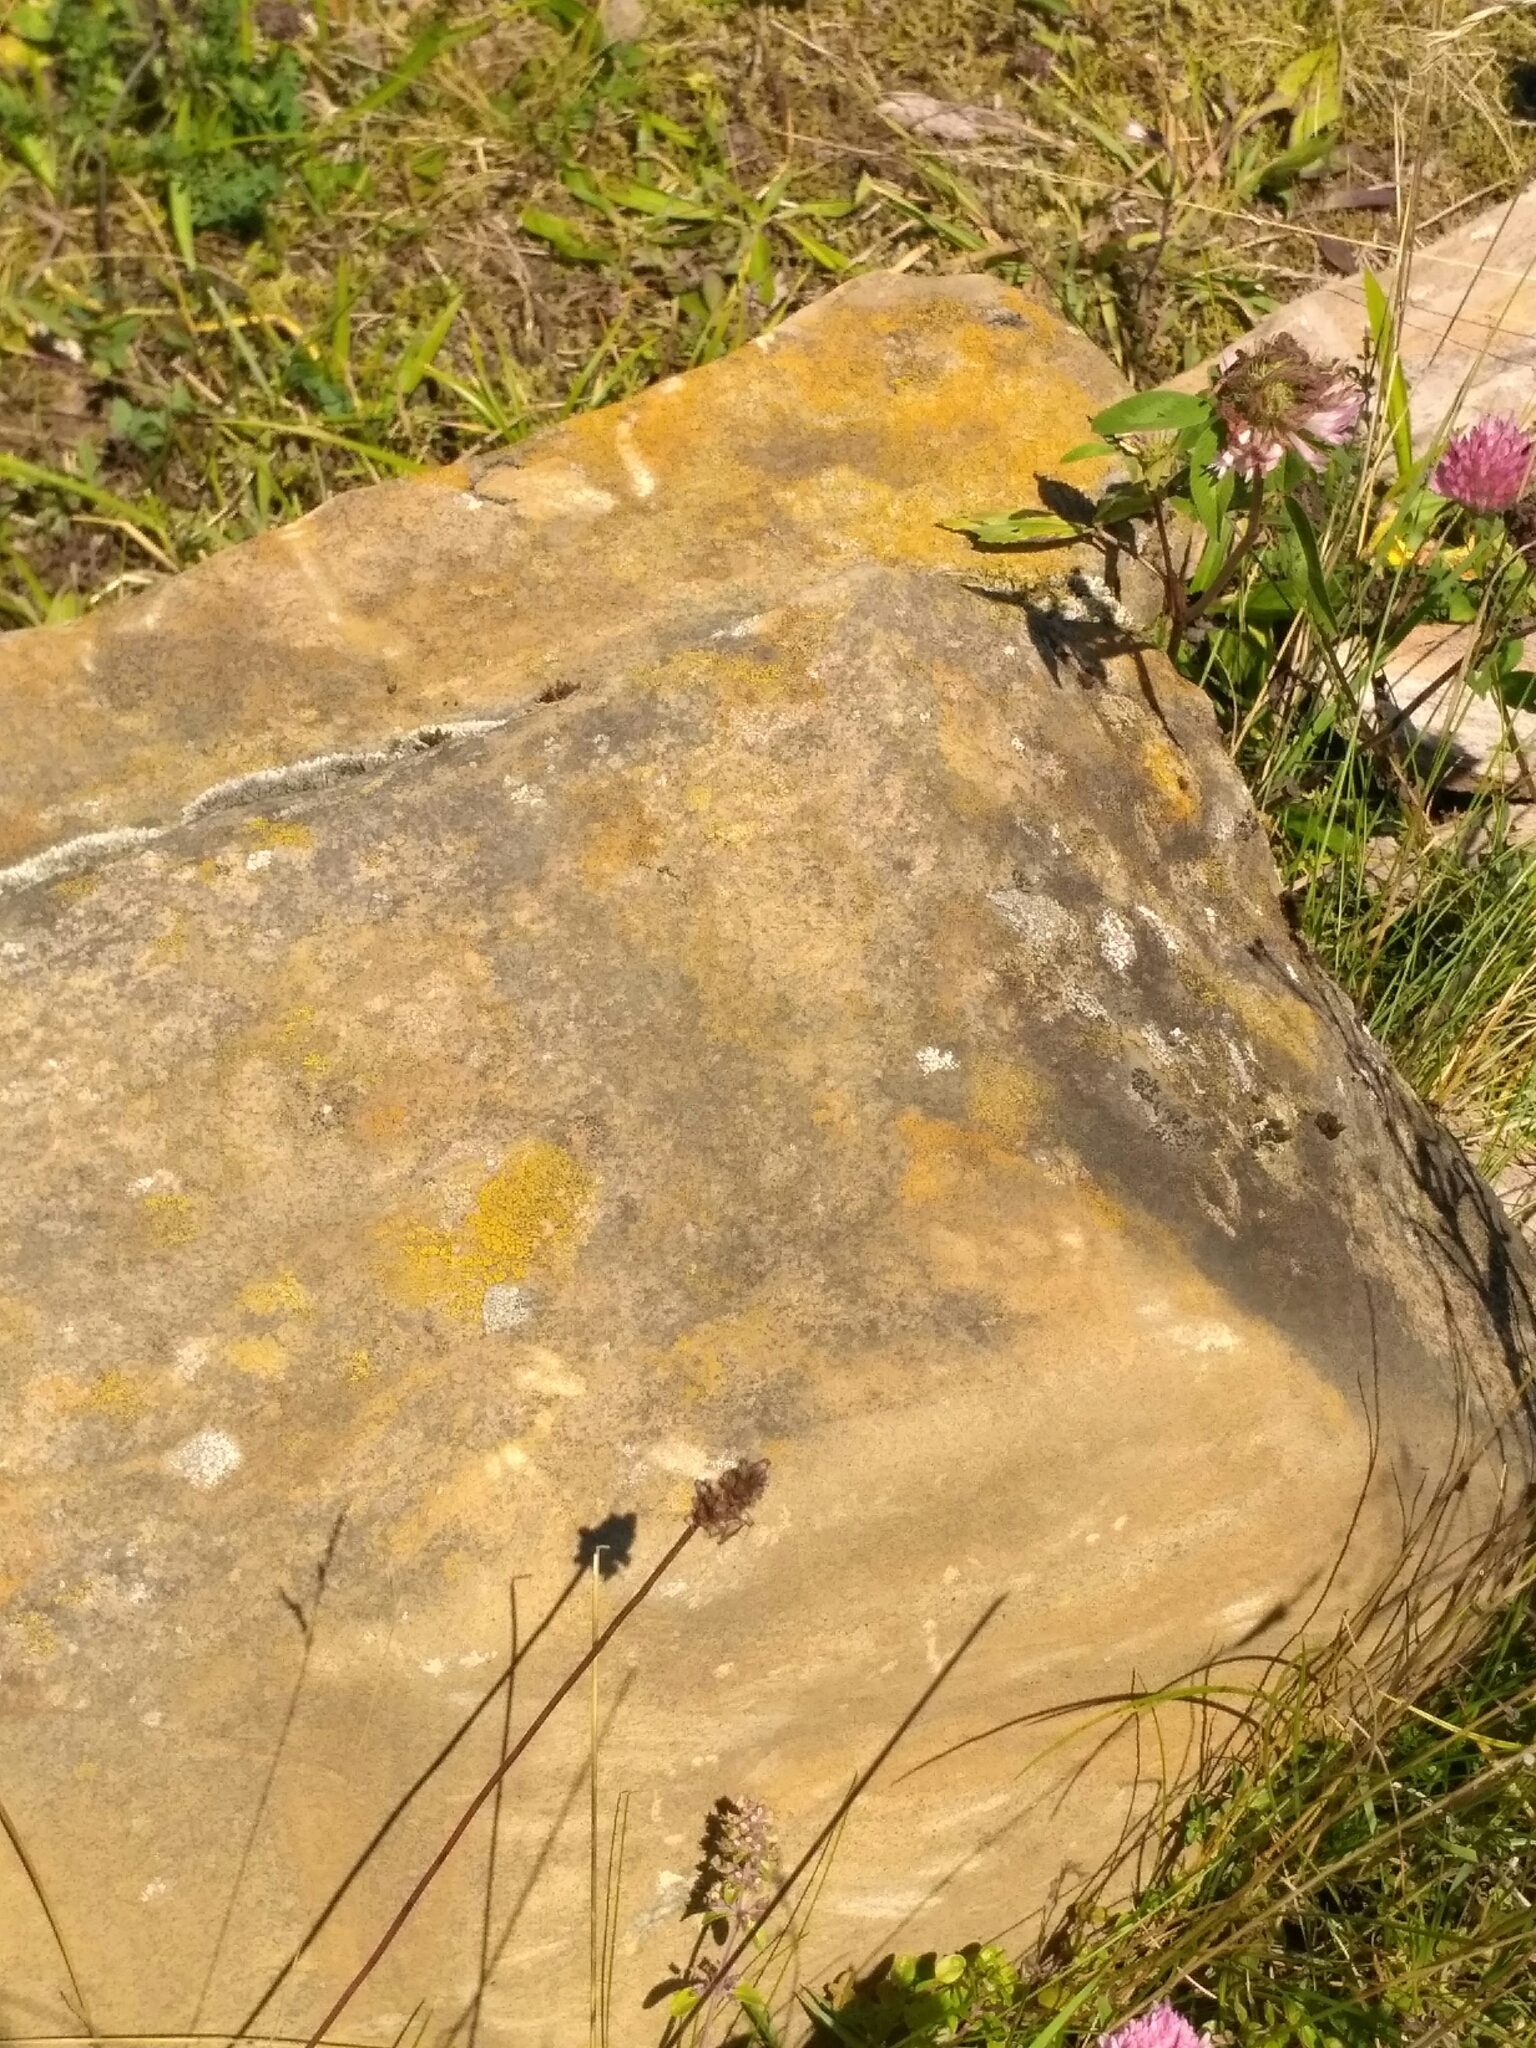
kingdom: Fungi
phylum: Ascomycota
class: Lecanoromycetes
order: Lecanorales
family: Lecanoraceae
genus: Polyozosia
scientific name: Polyozosia dispersa
